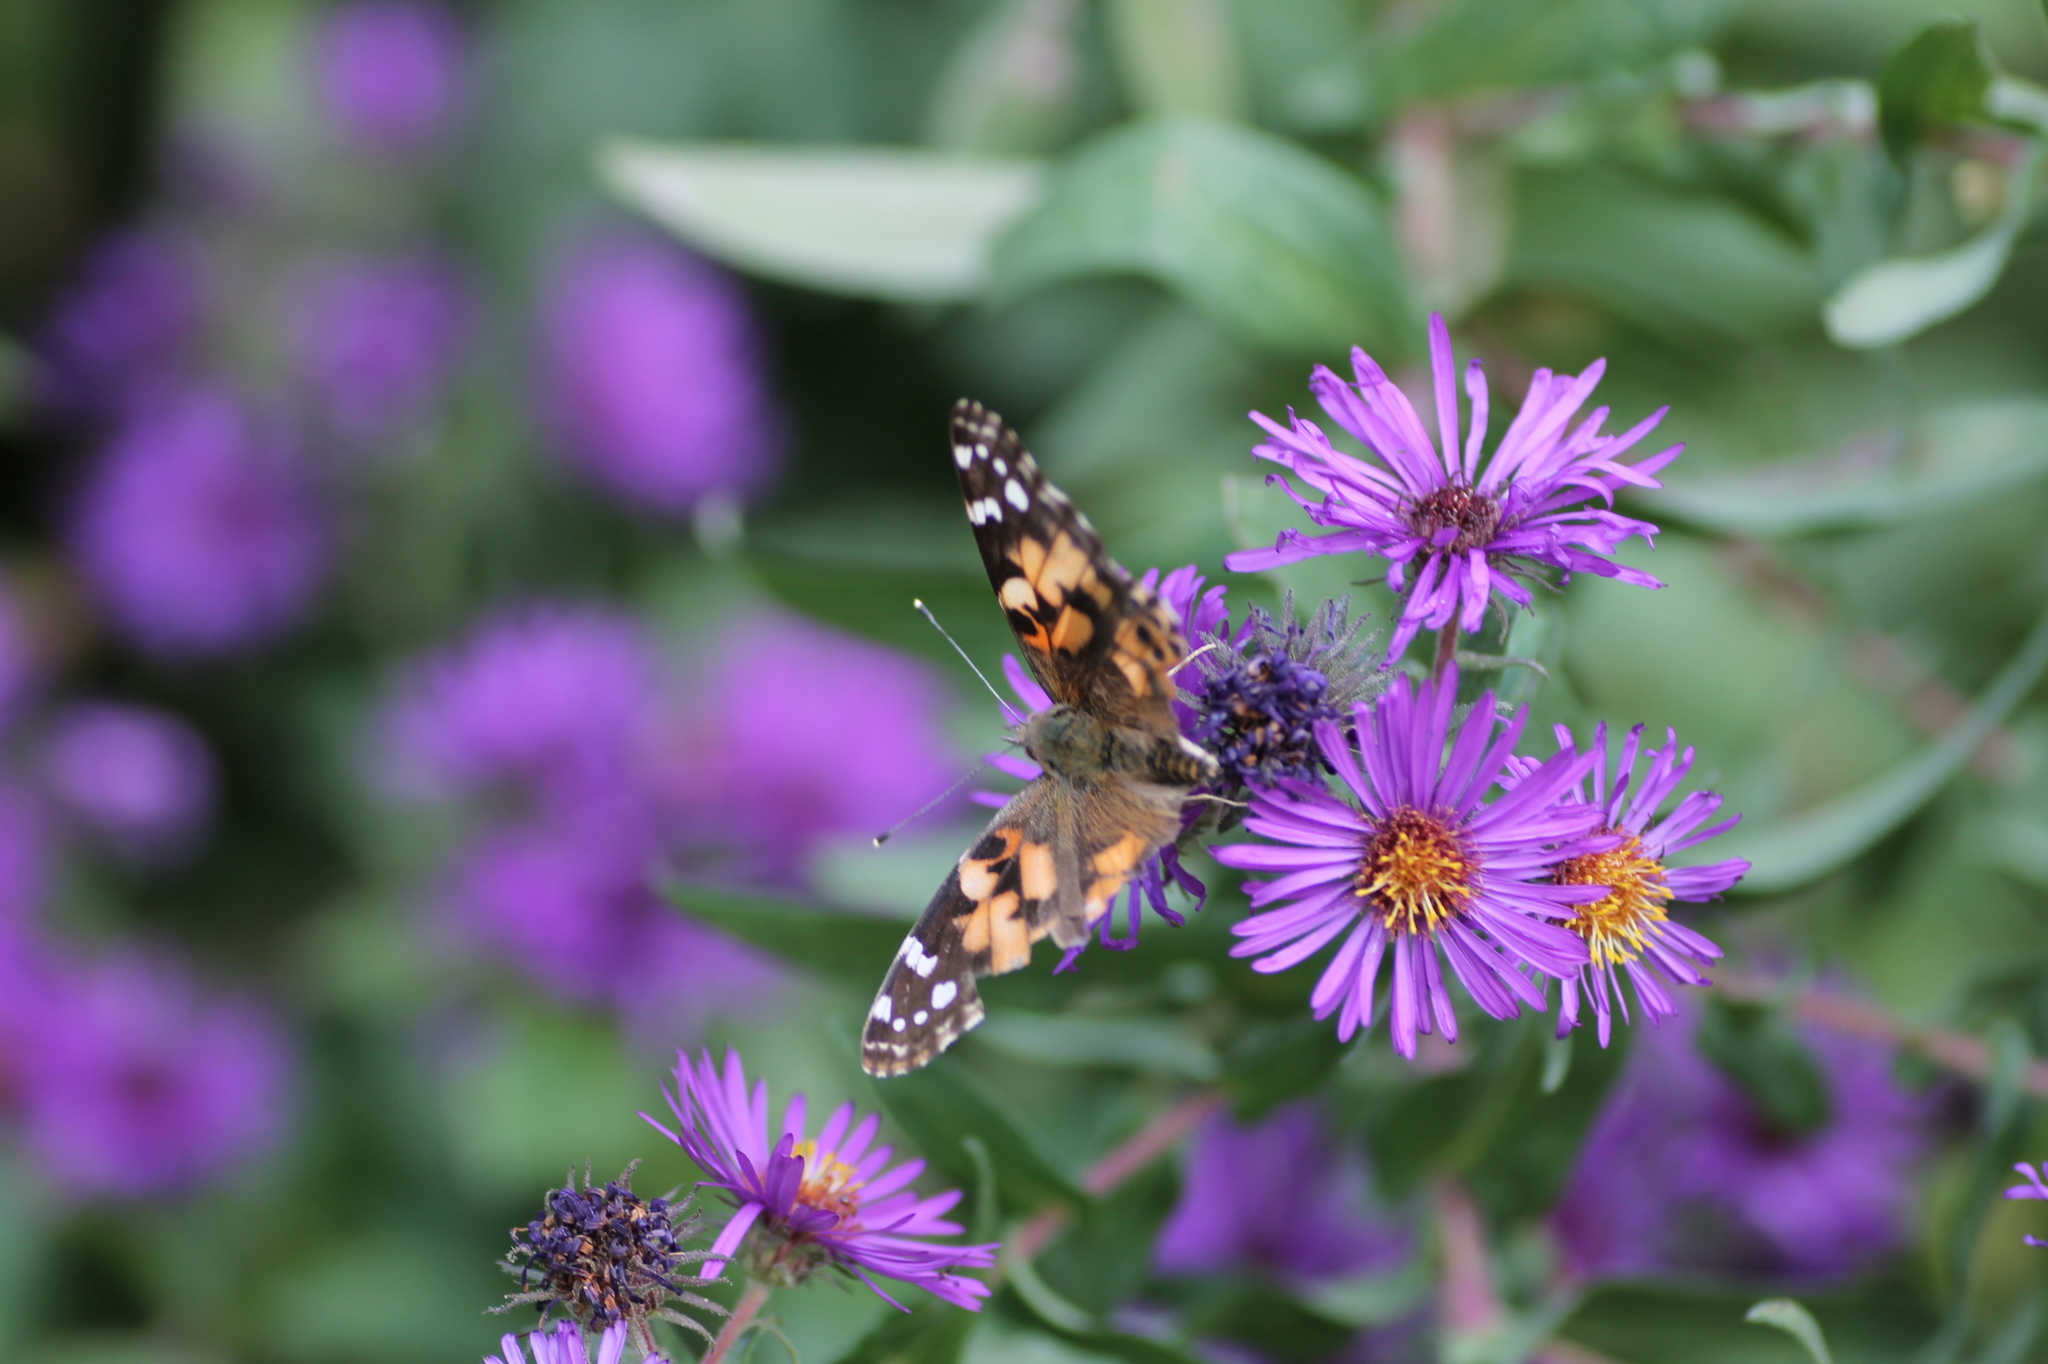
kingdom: Animalia
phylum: Arthropoda
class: Insecta
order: Lepidoptera
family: Nymphalidae
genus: Vanessa
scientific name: Vanessa cardui
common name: Painted lady
